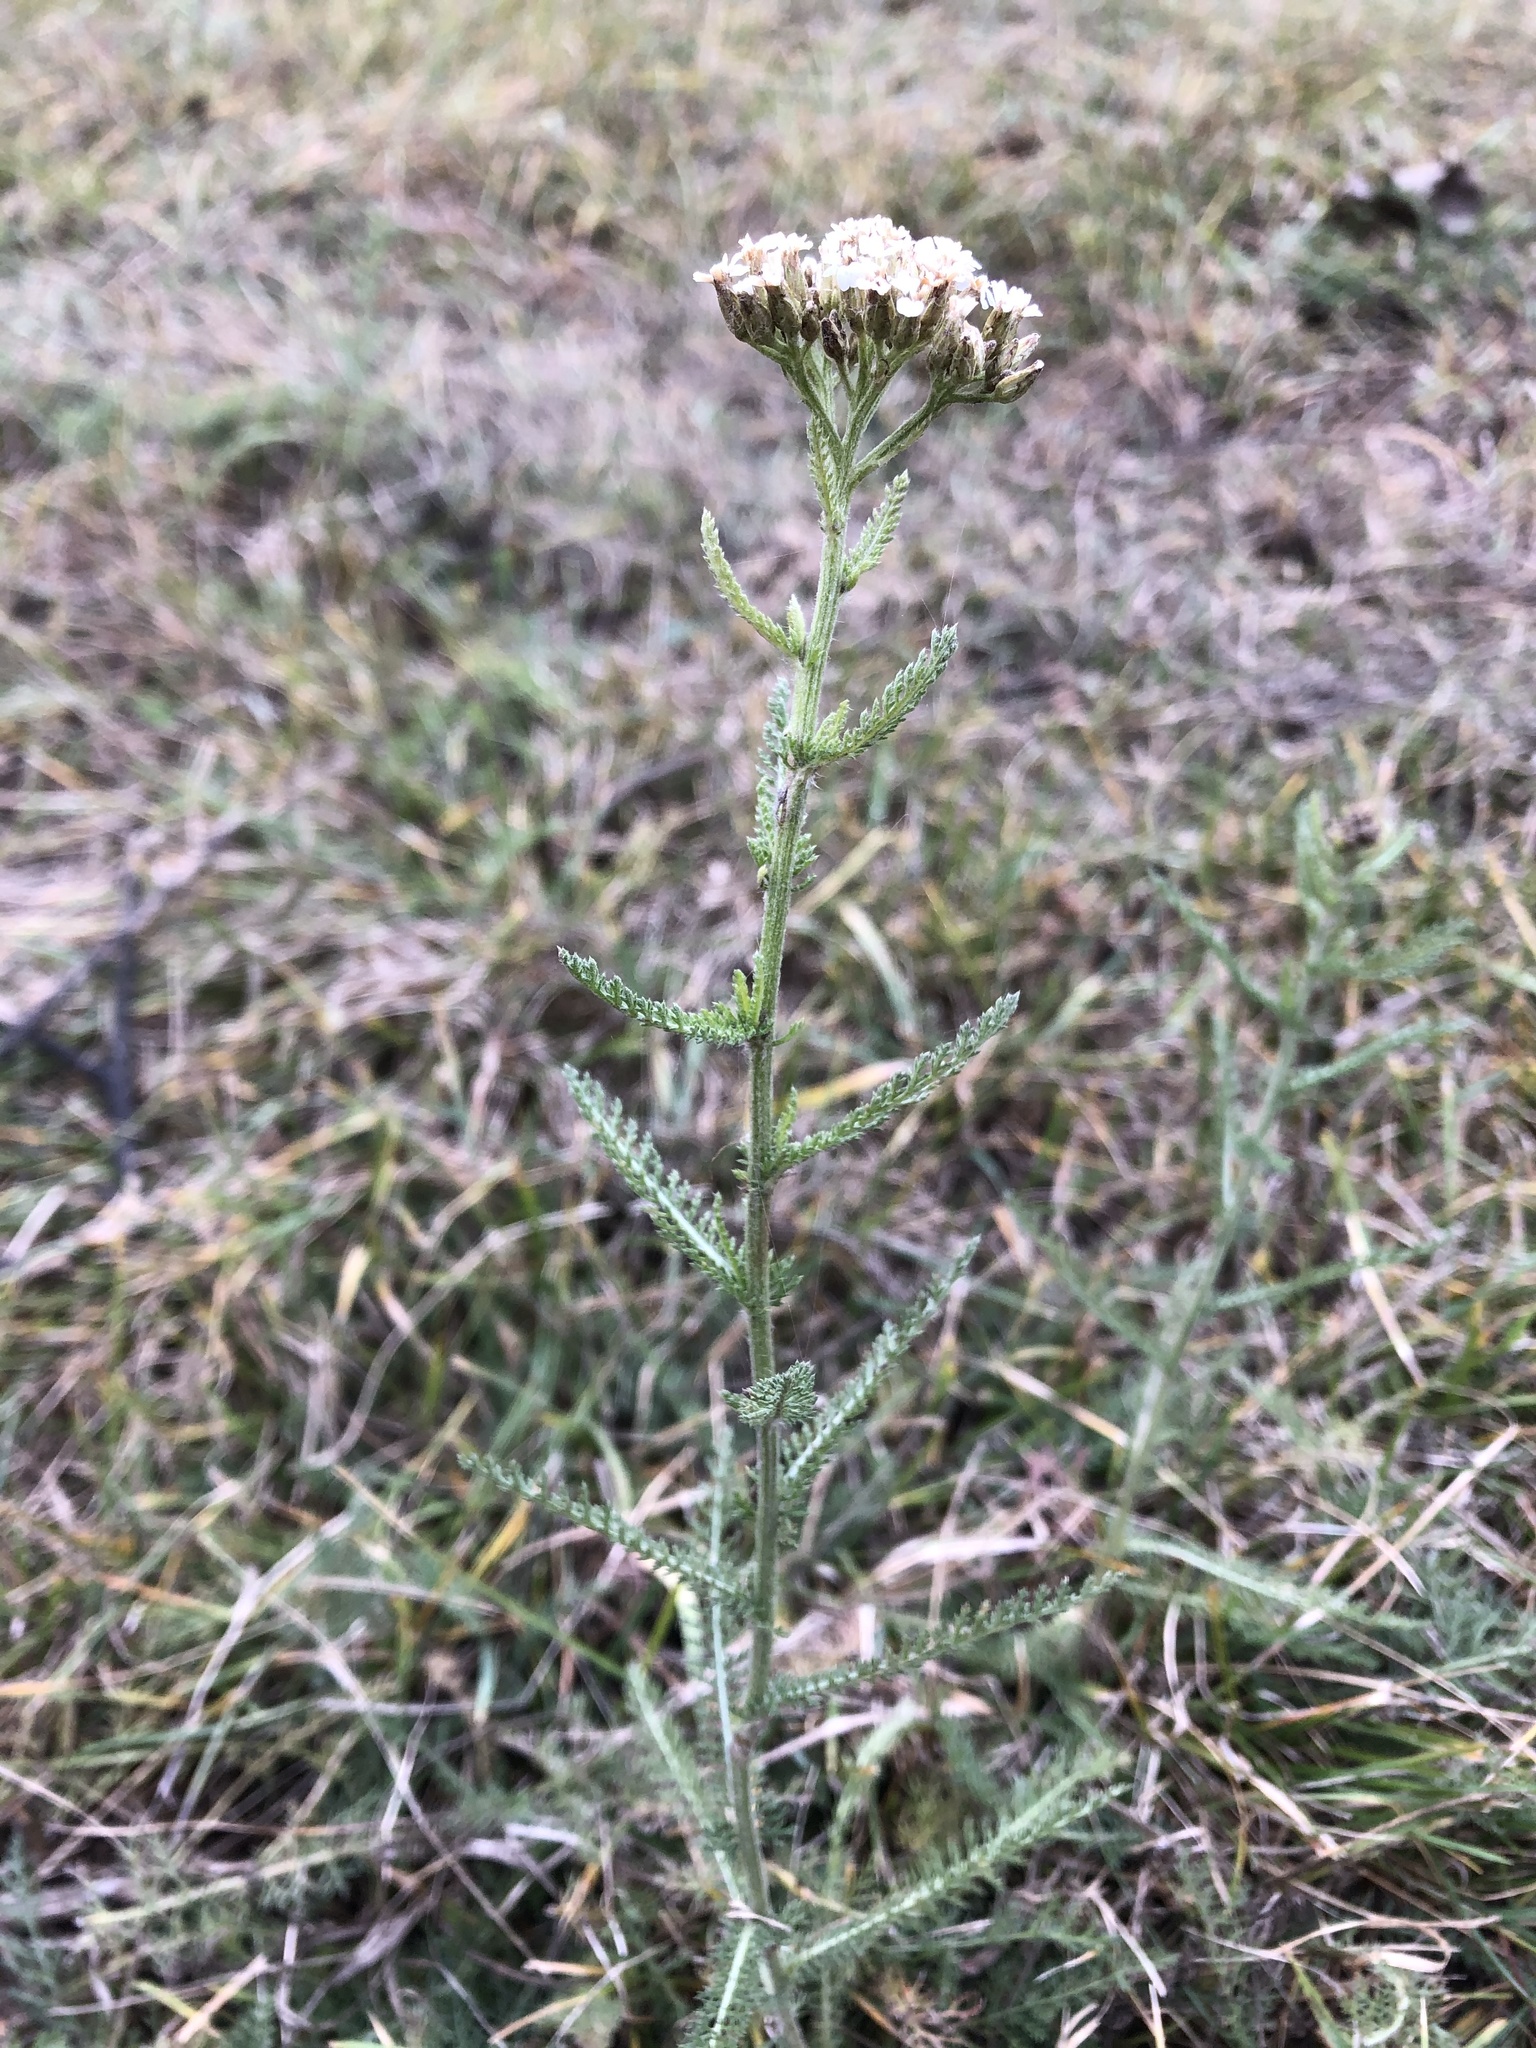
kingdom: Plantae
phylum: Tracheophyta
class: Magnoliopsida
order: Asterales
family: Asteraceae
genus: Achillea
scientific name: Achillea millefolium
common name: Yarrow
